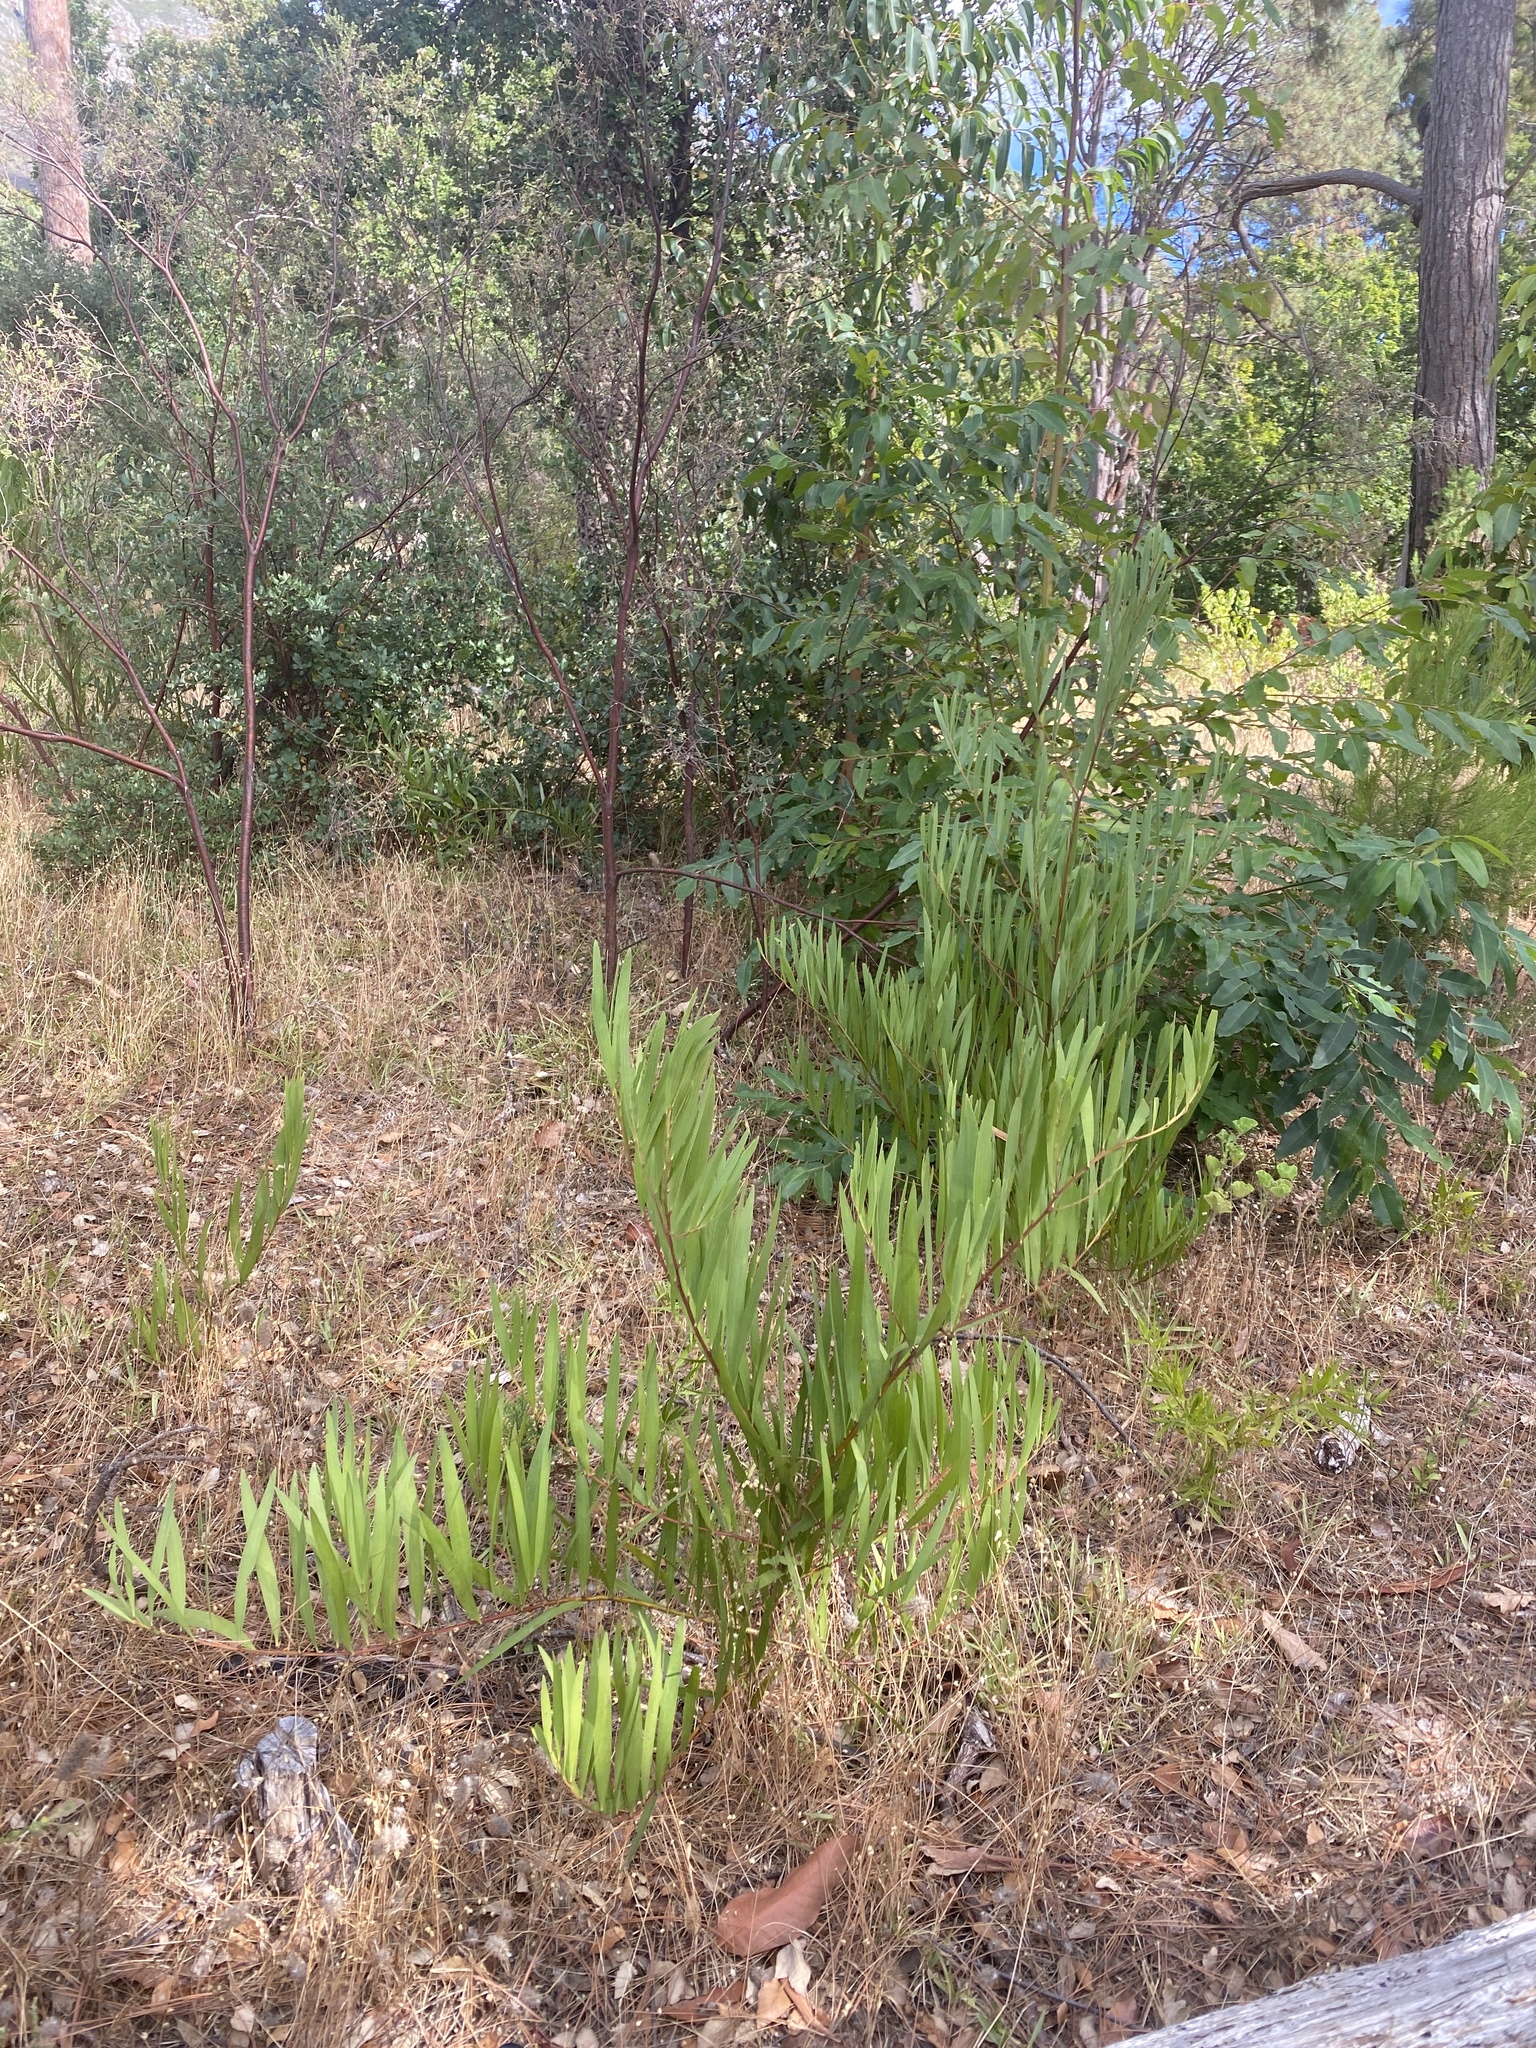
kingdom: Plantae
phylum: Tracheophyta
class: Magnoliopsida
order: Fabales
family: Fabaceae
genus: Acacia
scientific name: Acacia longifolia
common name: Sydney golden wattle
